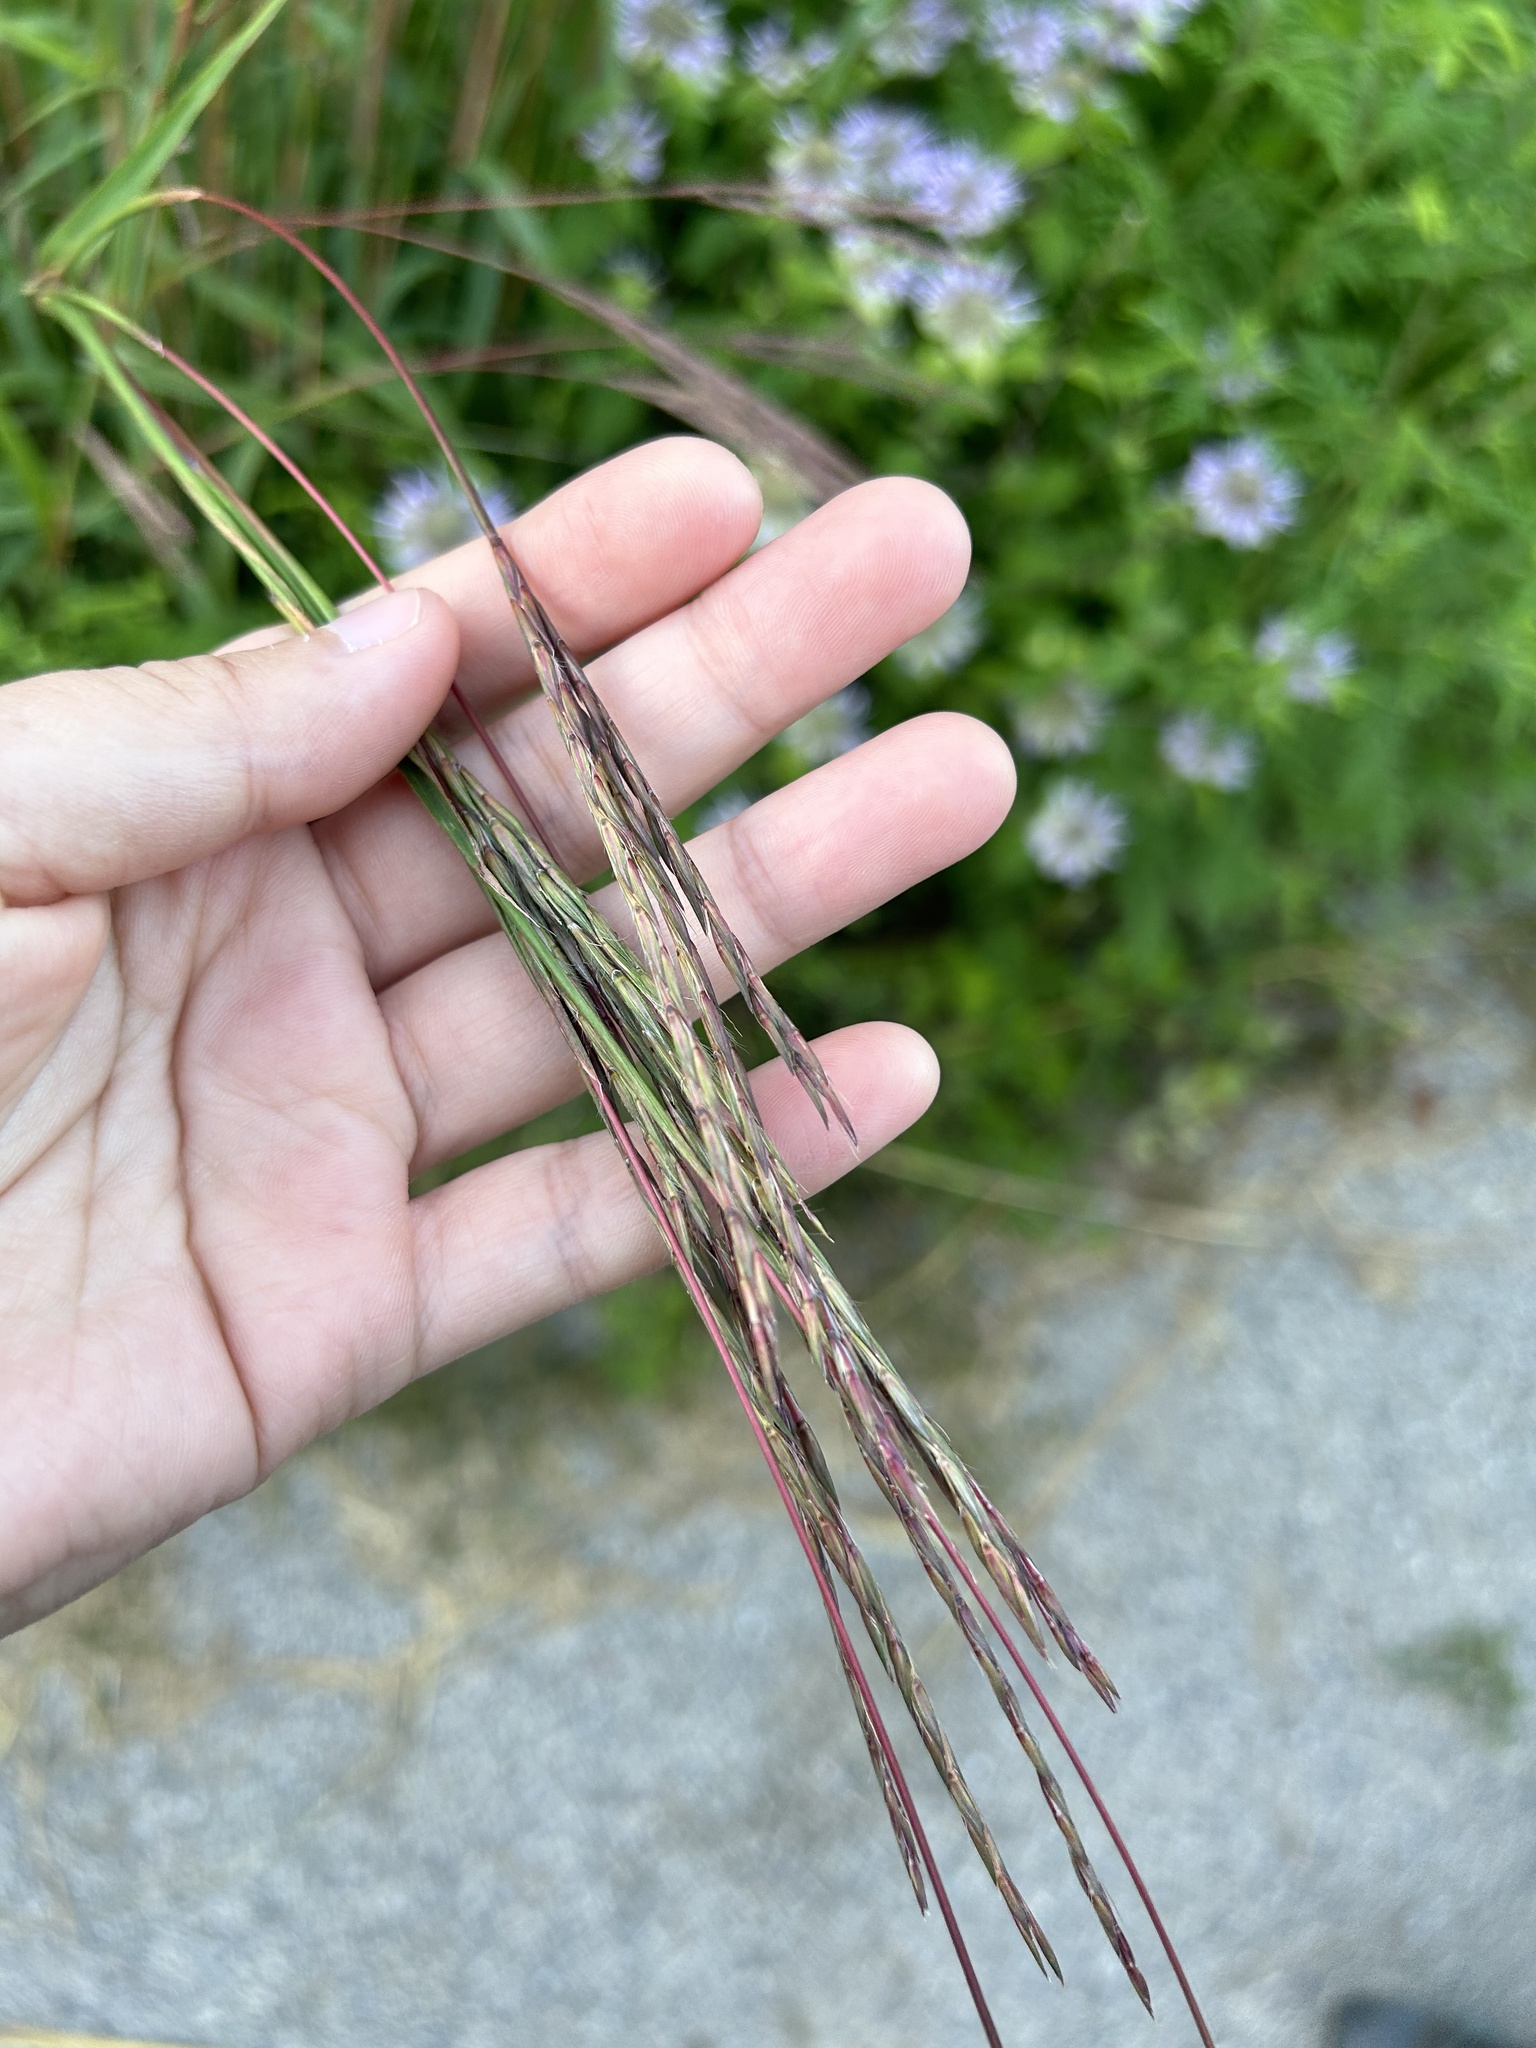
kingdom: Plantae
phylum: Tracheophyta
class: Liliopsida
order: Poales
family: Poaceae
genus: Andropogon
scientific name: Andropogon gerardi
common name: Big bluestem
